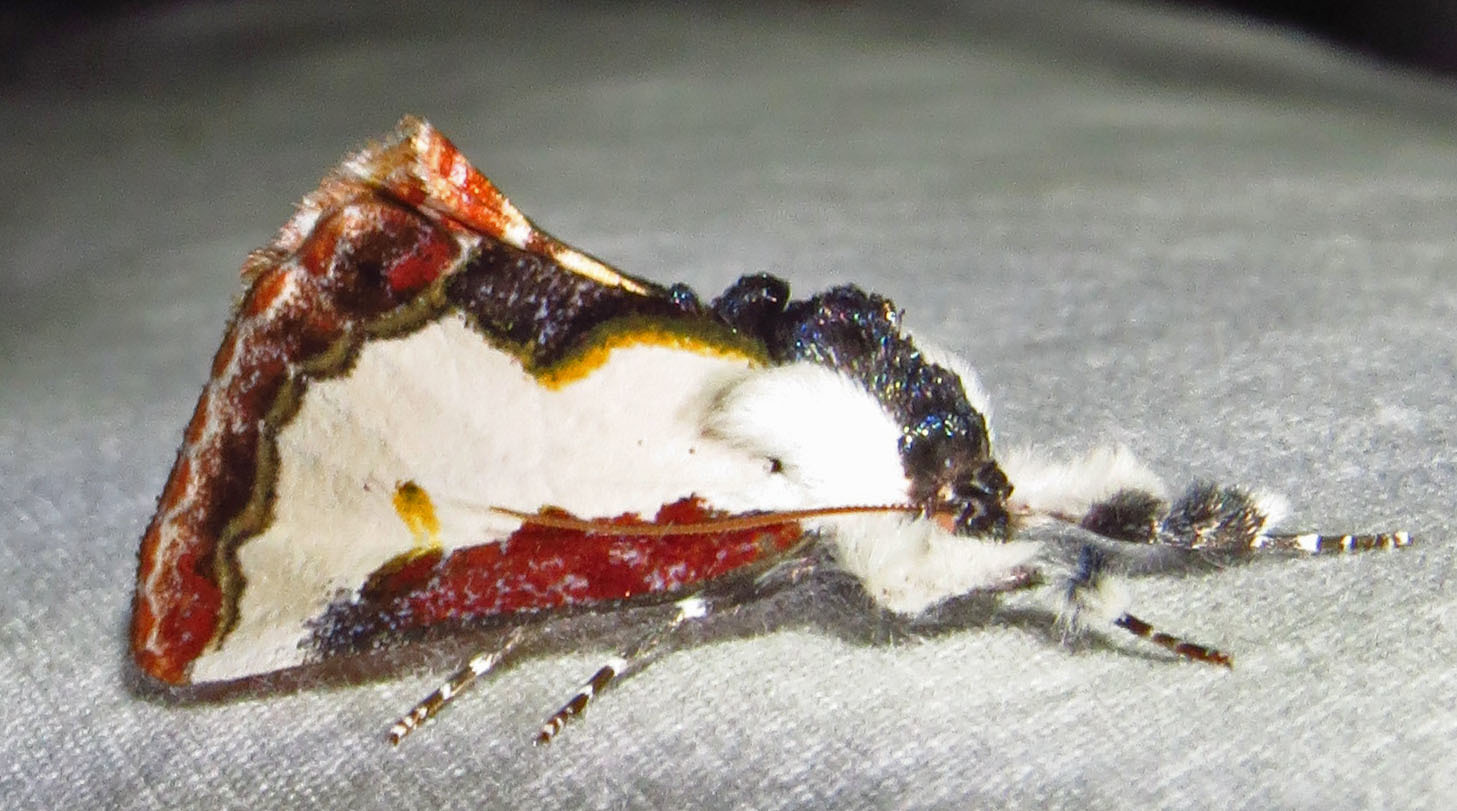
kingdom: Animalia
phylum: Arthropoda
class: Insecta
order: Lepidoptera
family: Noctuidae
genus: Eudryas
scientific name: Eudryas unio
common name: Pearly wood-nymph
